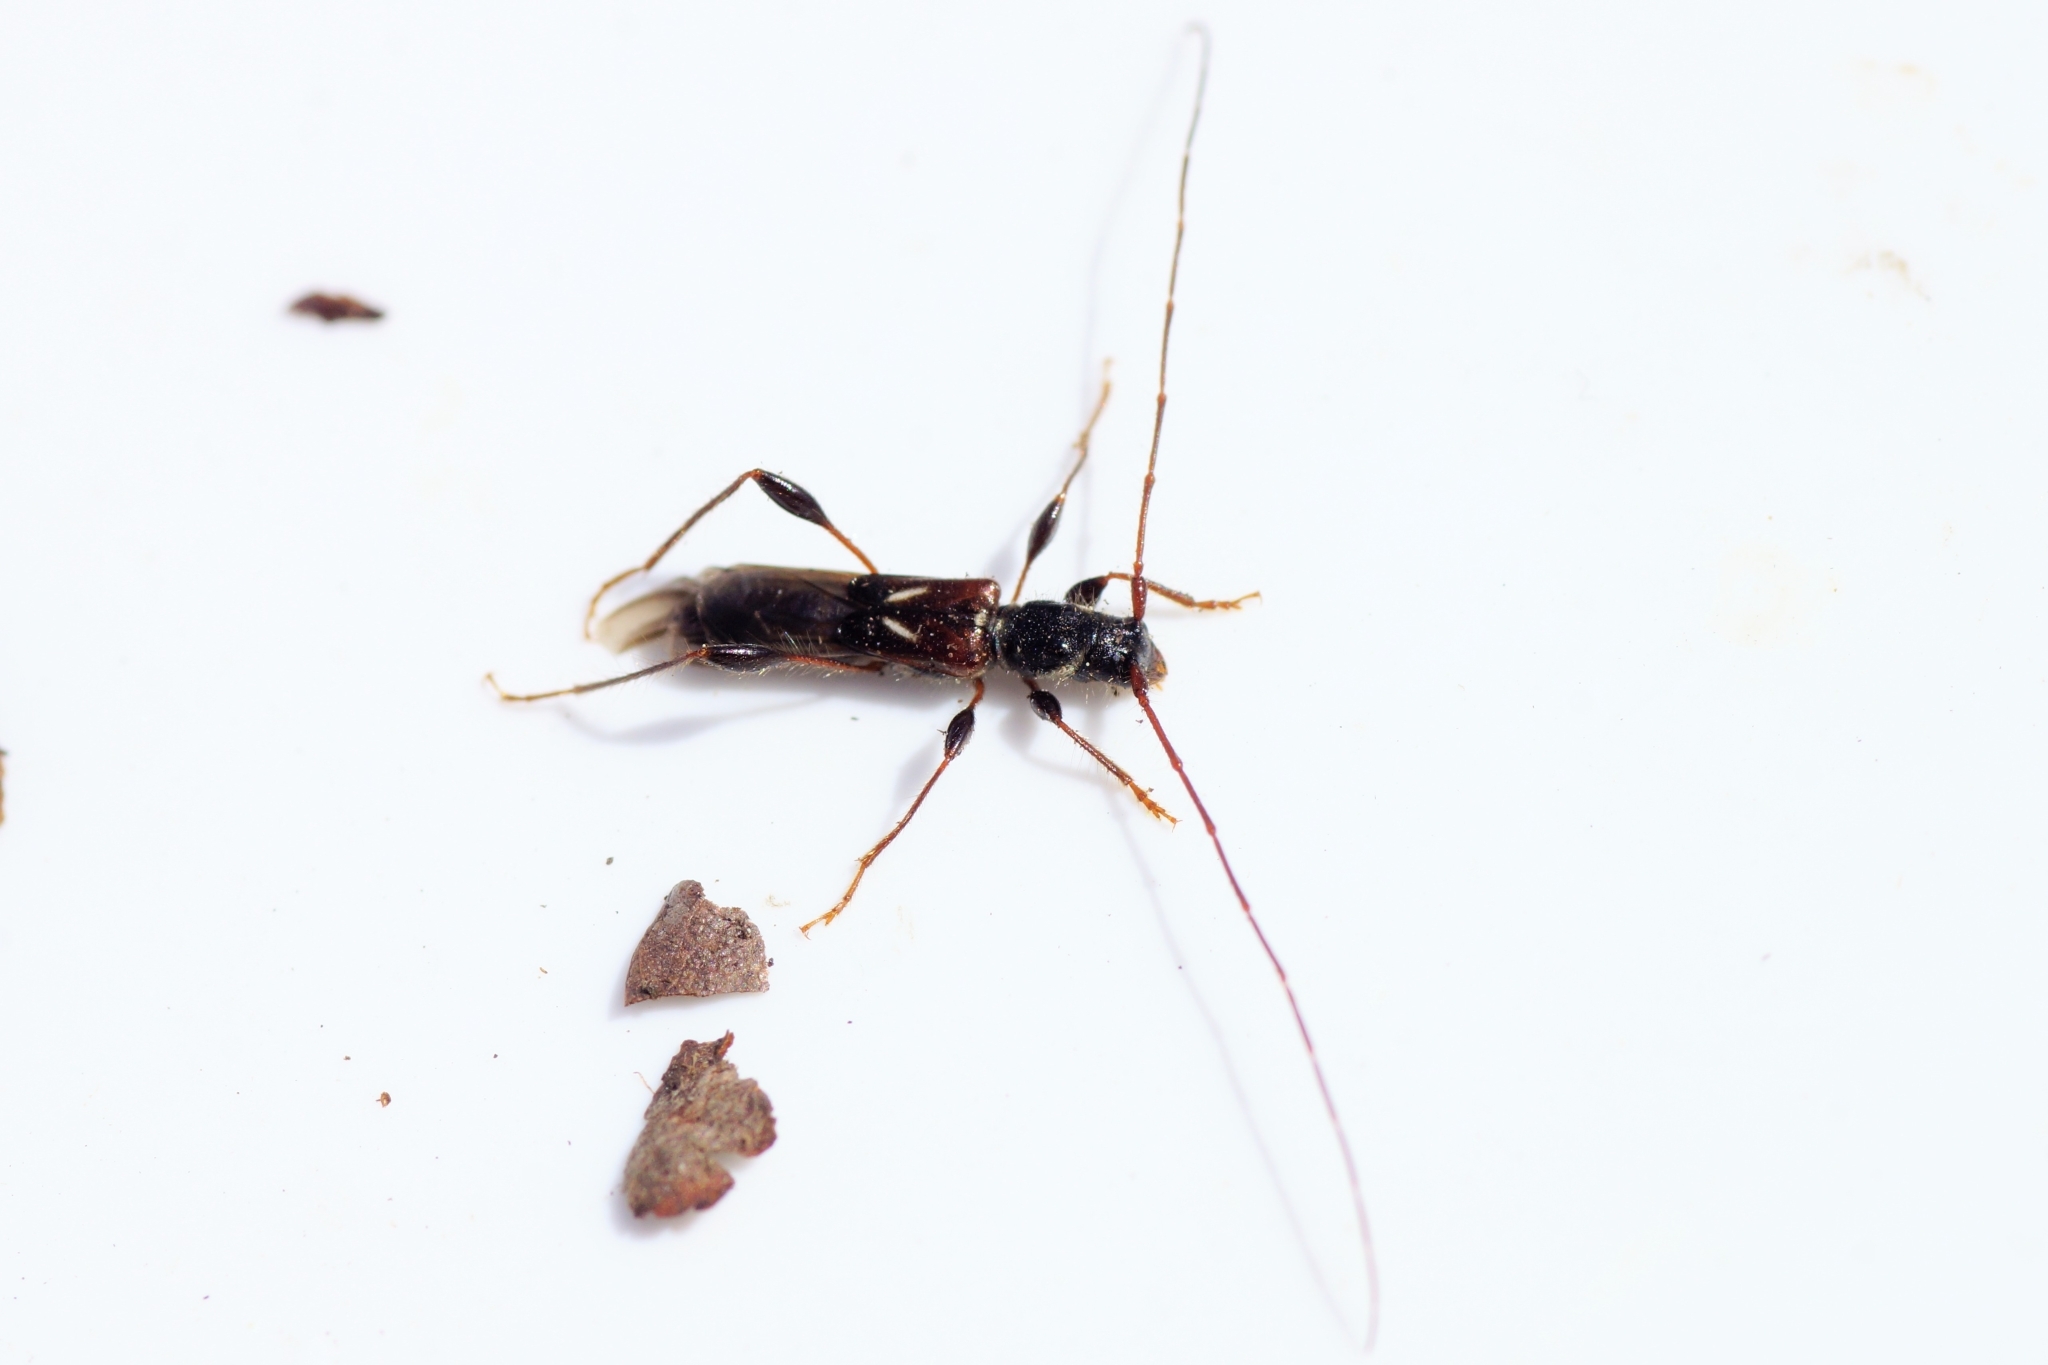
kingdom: Animalia
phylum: Arthropoda
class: Insecta
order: Coleoptera
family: Cerambycidae
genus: Molorchus
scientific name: Molorchus minor
